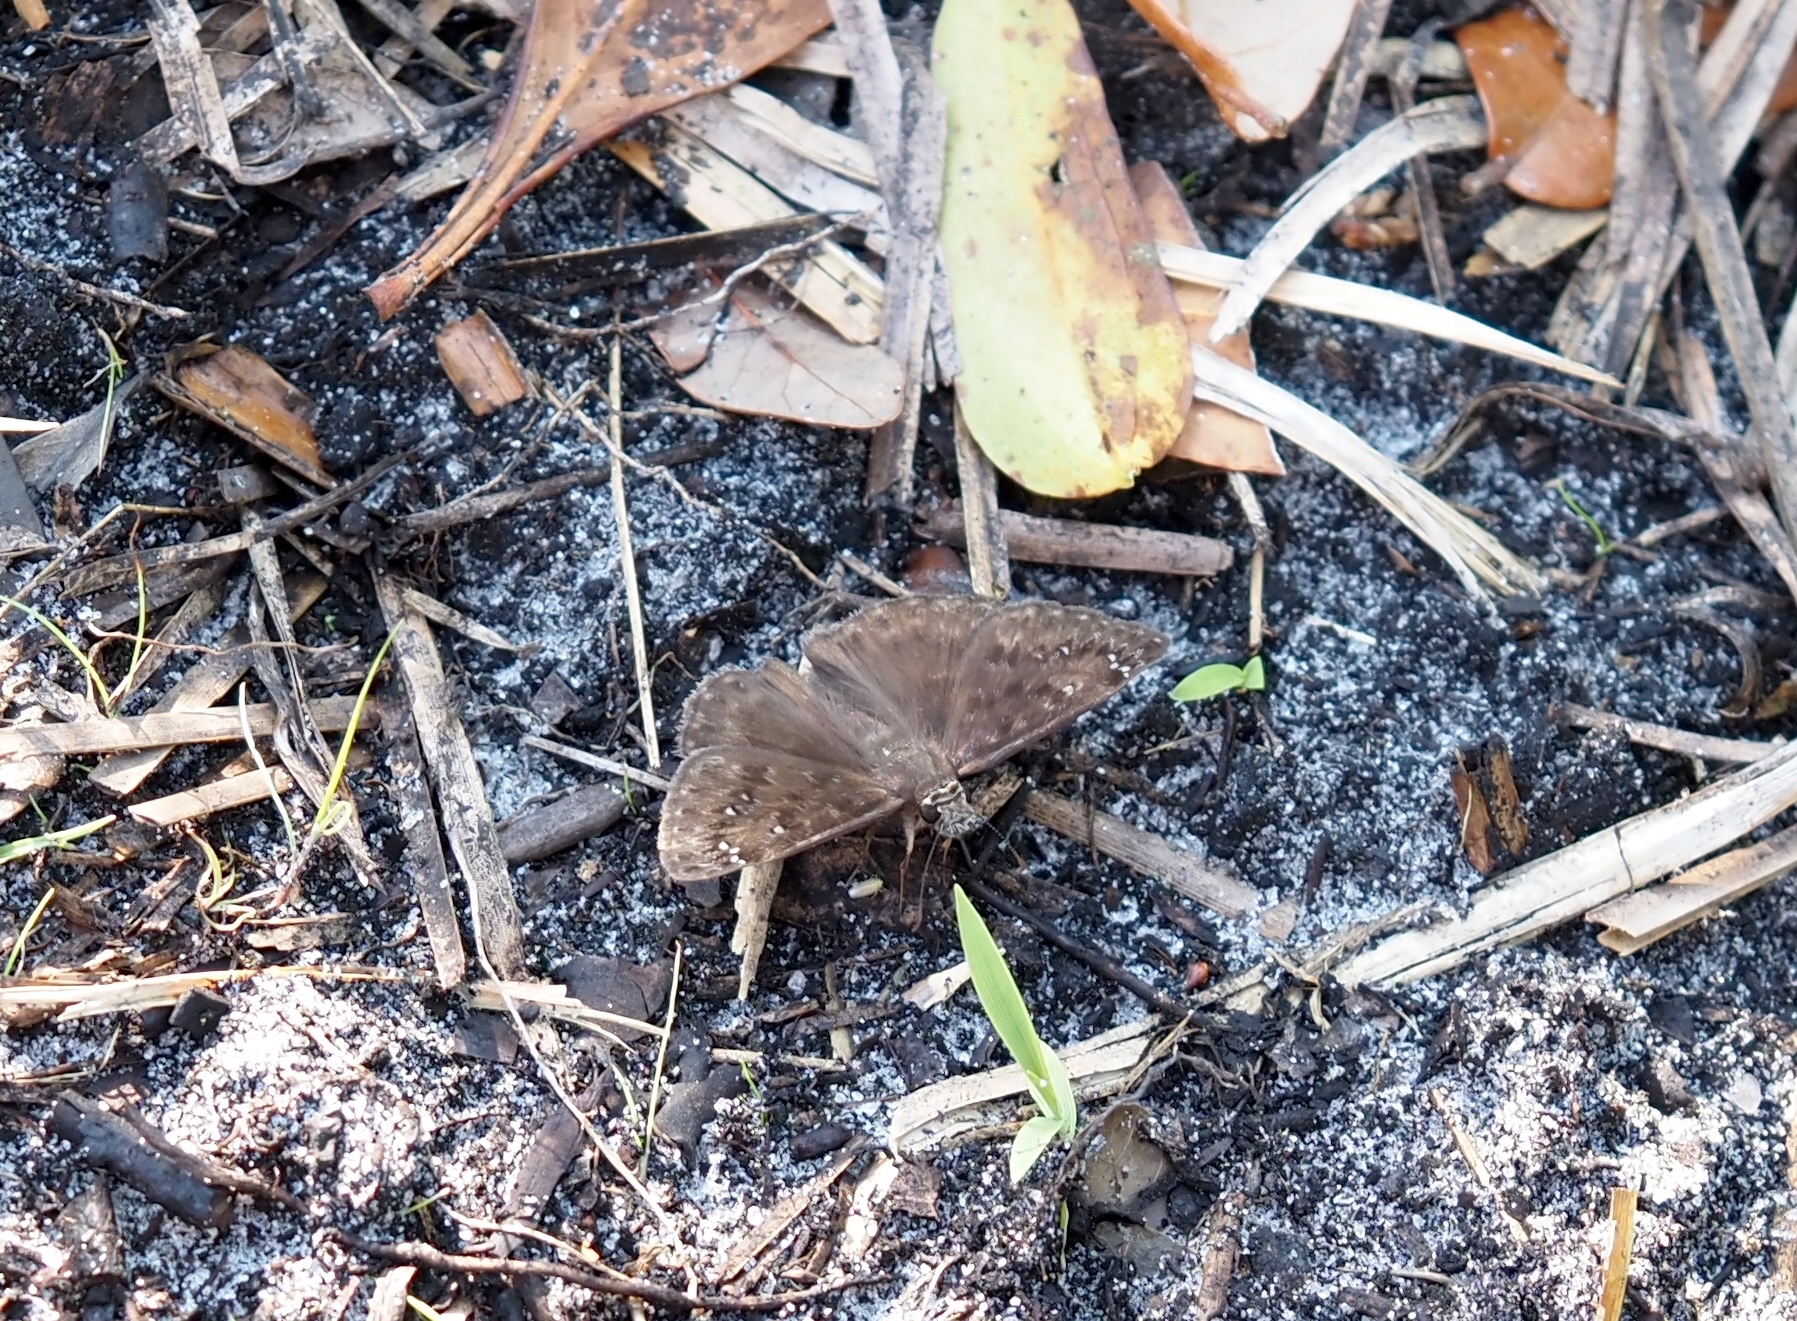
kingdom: Animalia
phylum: Arthropoda
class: Insecta
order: Lepidoptera
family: Hesperiidae
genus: Erynnis
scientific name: Erynnis horatius
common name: Horace's duskywing
